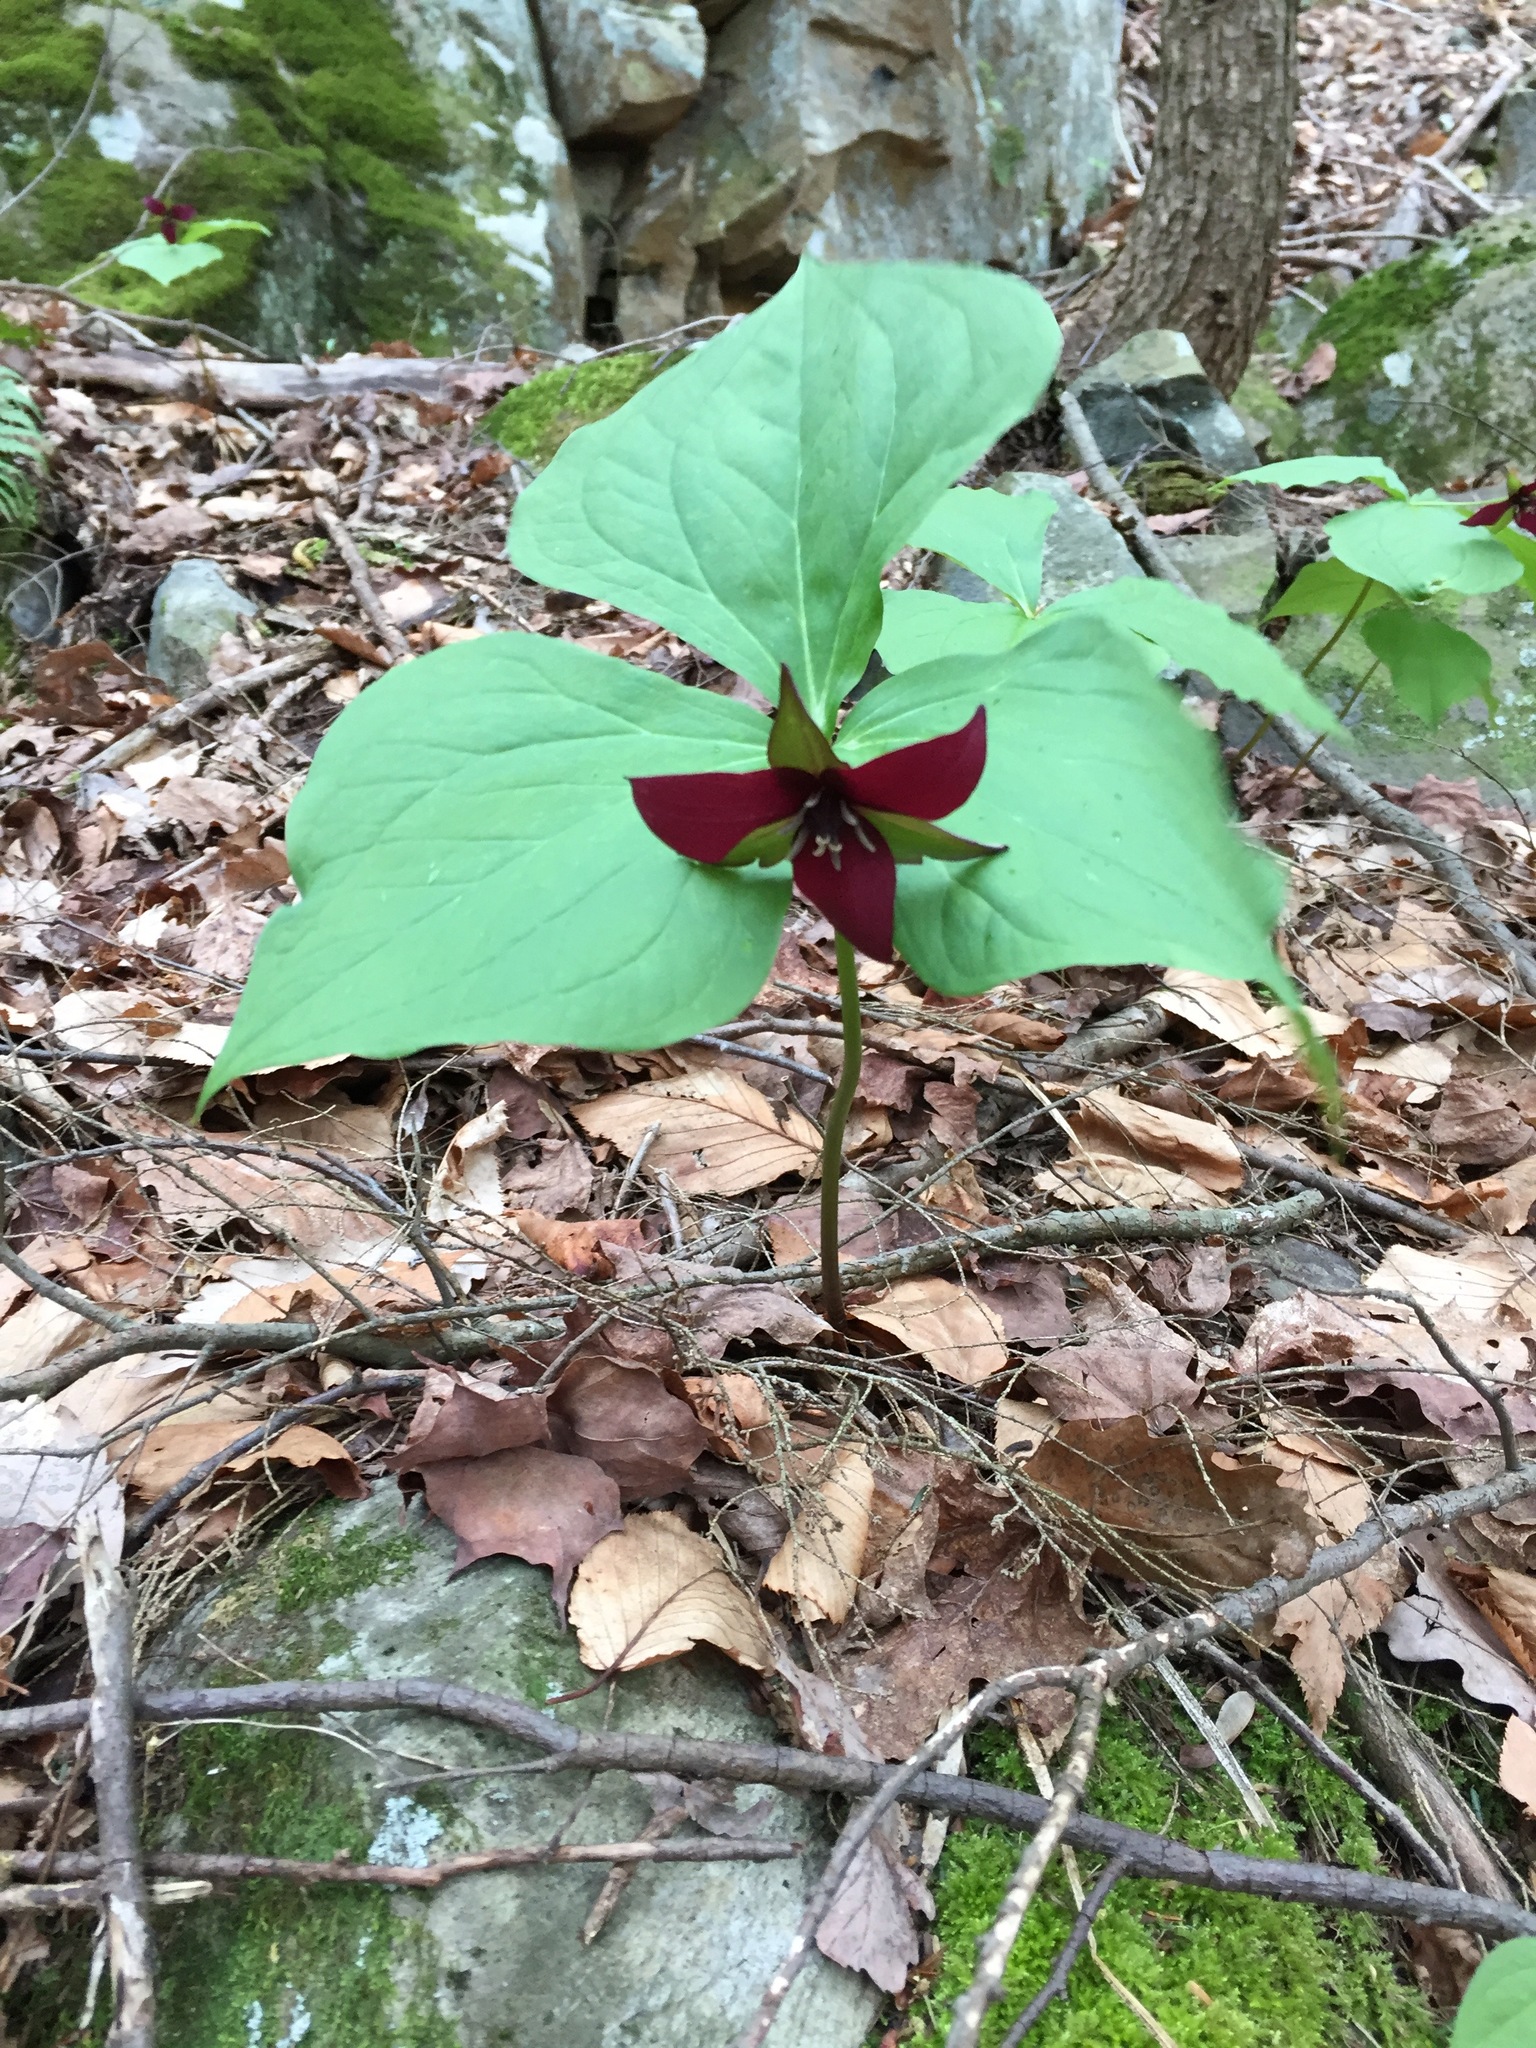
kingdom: Plantae
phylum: Tracheophyta
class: Liliopsida
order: Liliales
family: Melanthiaceae
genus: Trillium
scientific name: Trillium erectum
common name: Purple trillium
